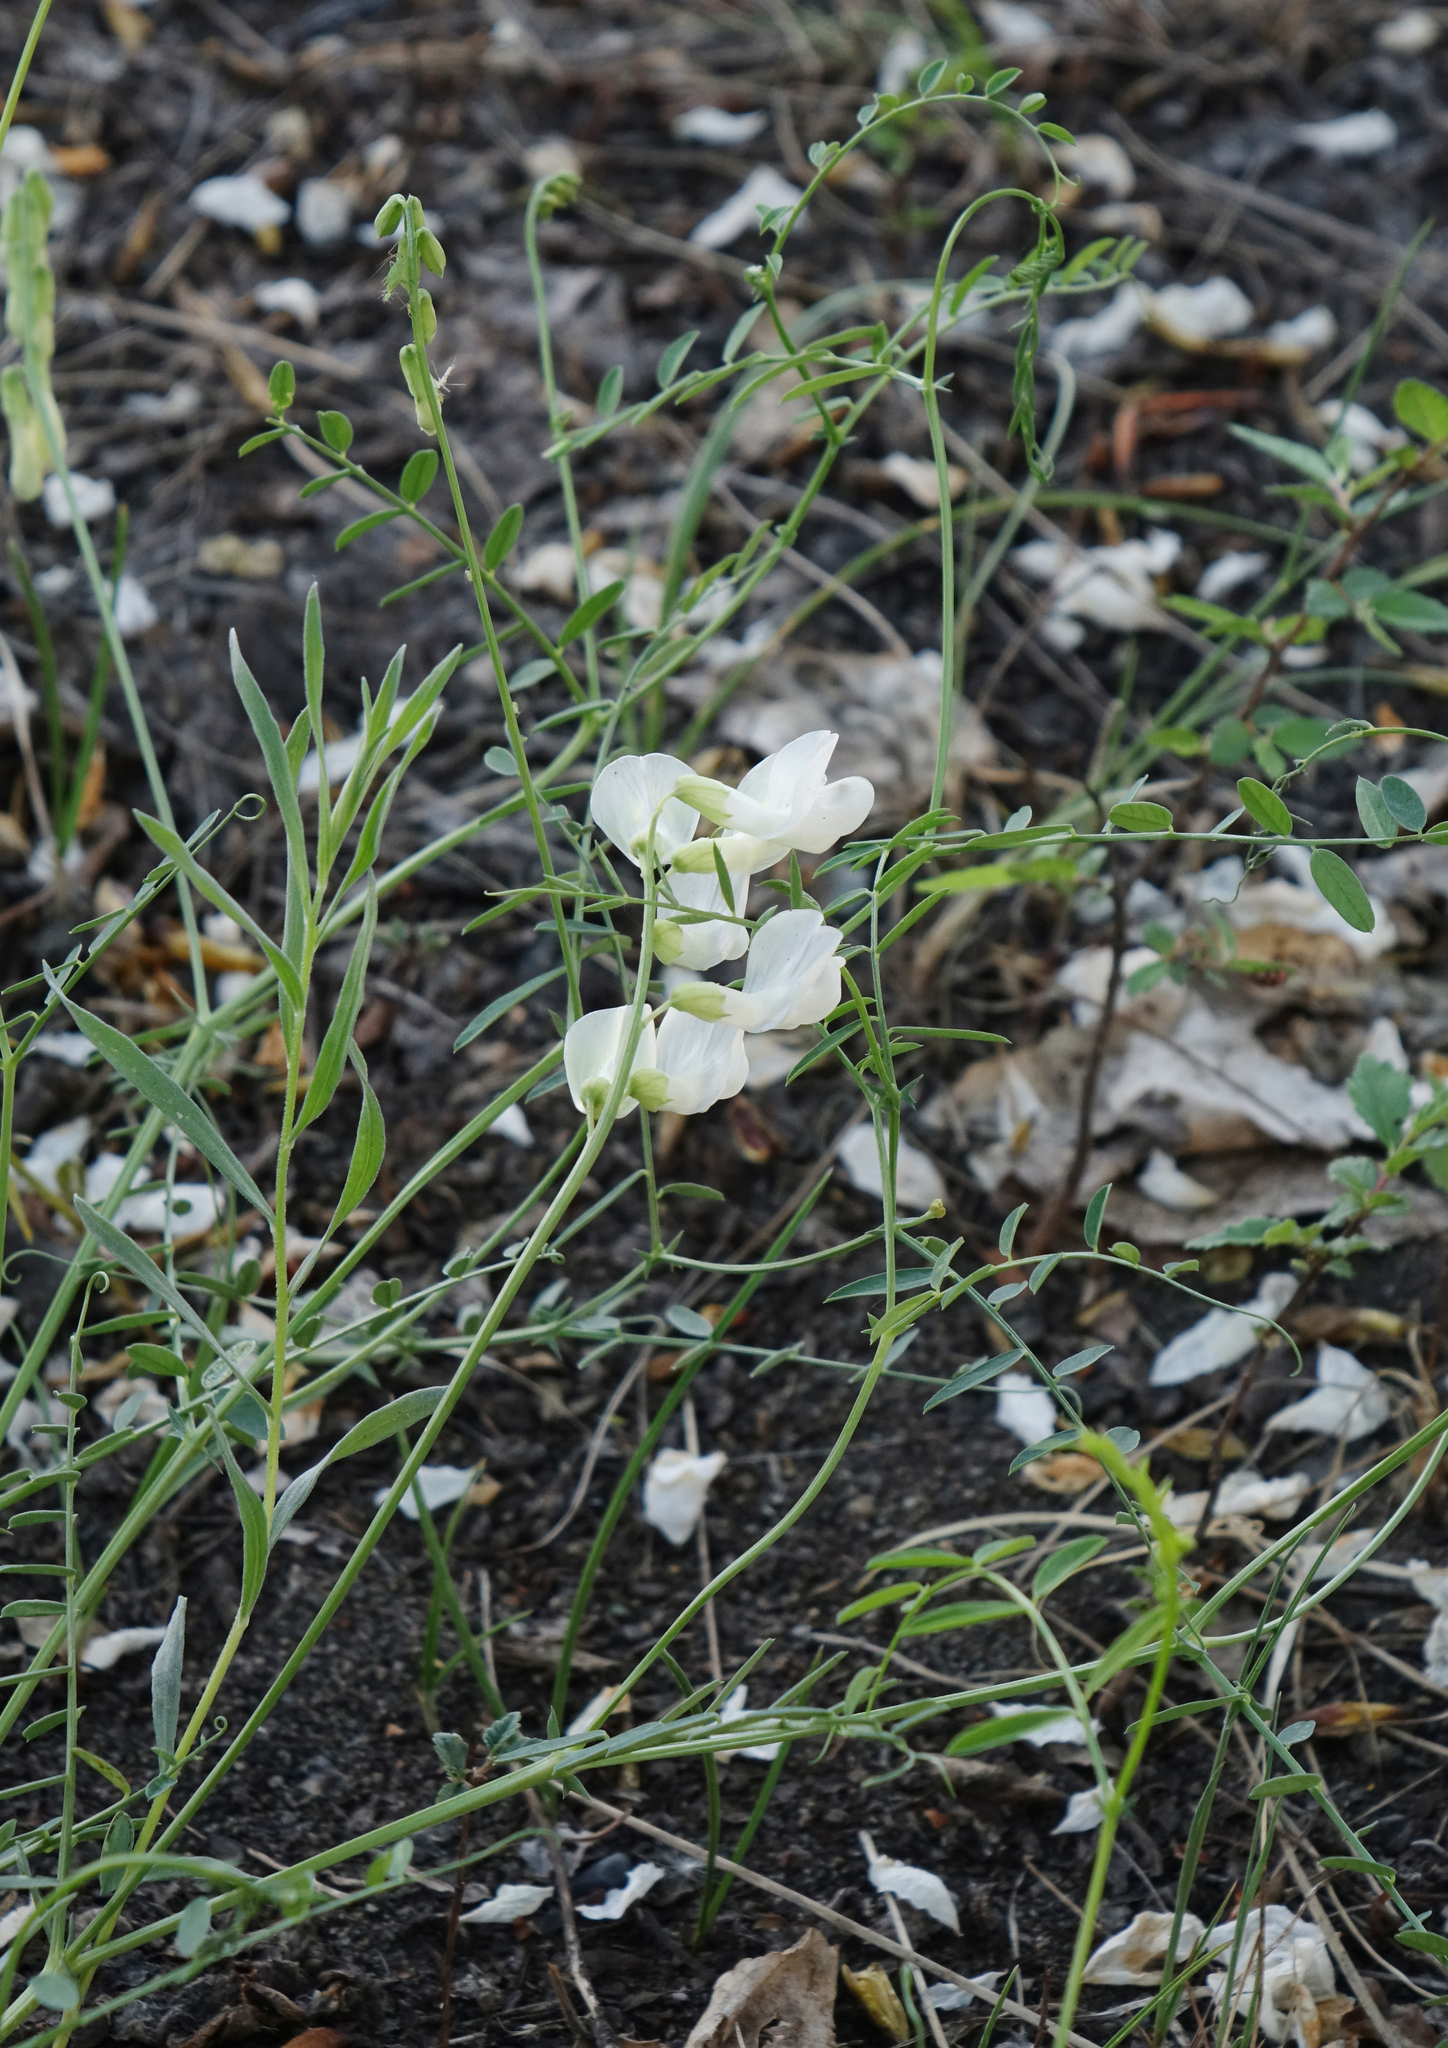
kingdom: Plantae
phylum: Tracheophyta
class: Magnoliopsida
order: Fabales
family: Fabaceae
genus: Vicia
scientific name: Vicia costata
